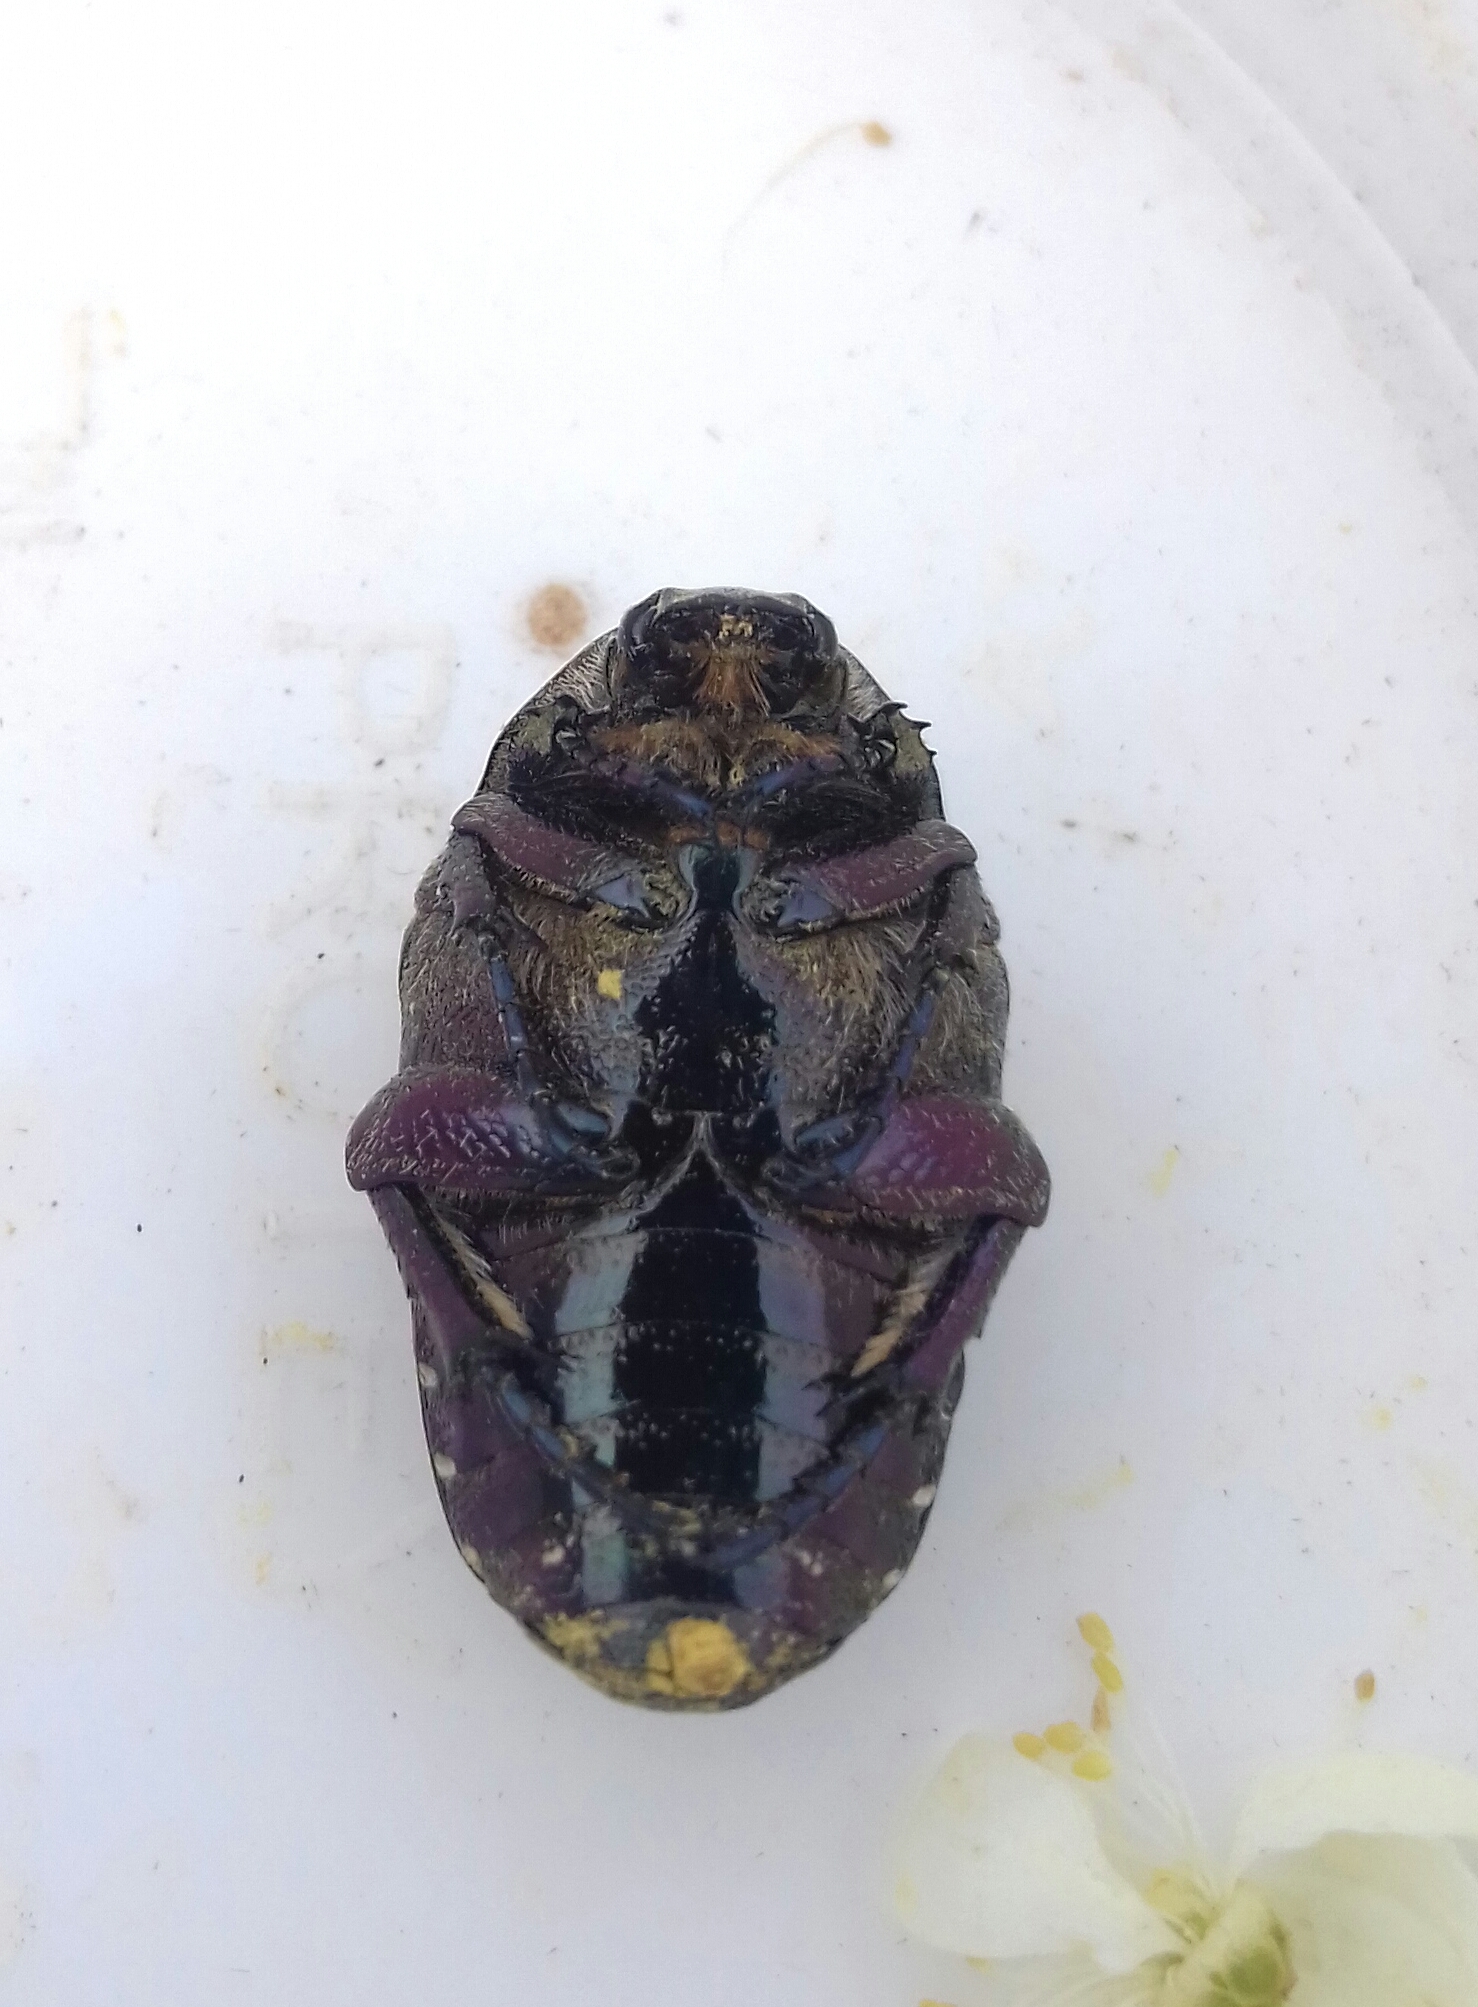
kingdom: Animalia
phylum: Arthropoda
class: Insecta
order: Coleoptera
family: Scarabaeidae
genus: Protaetia
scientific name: Protaetia cuprea
